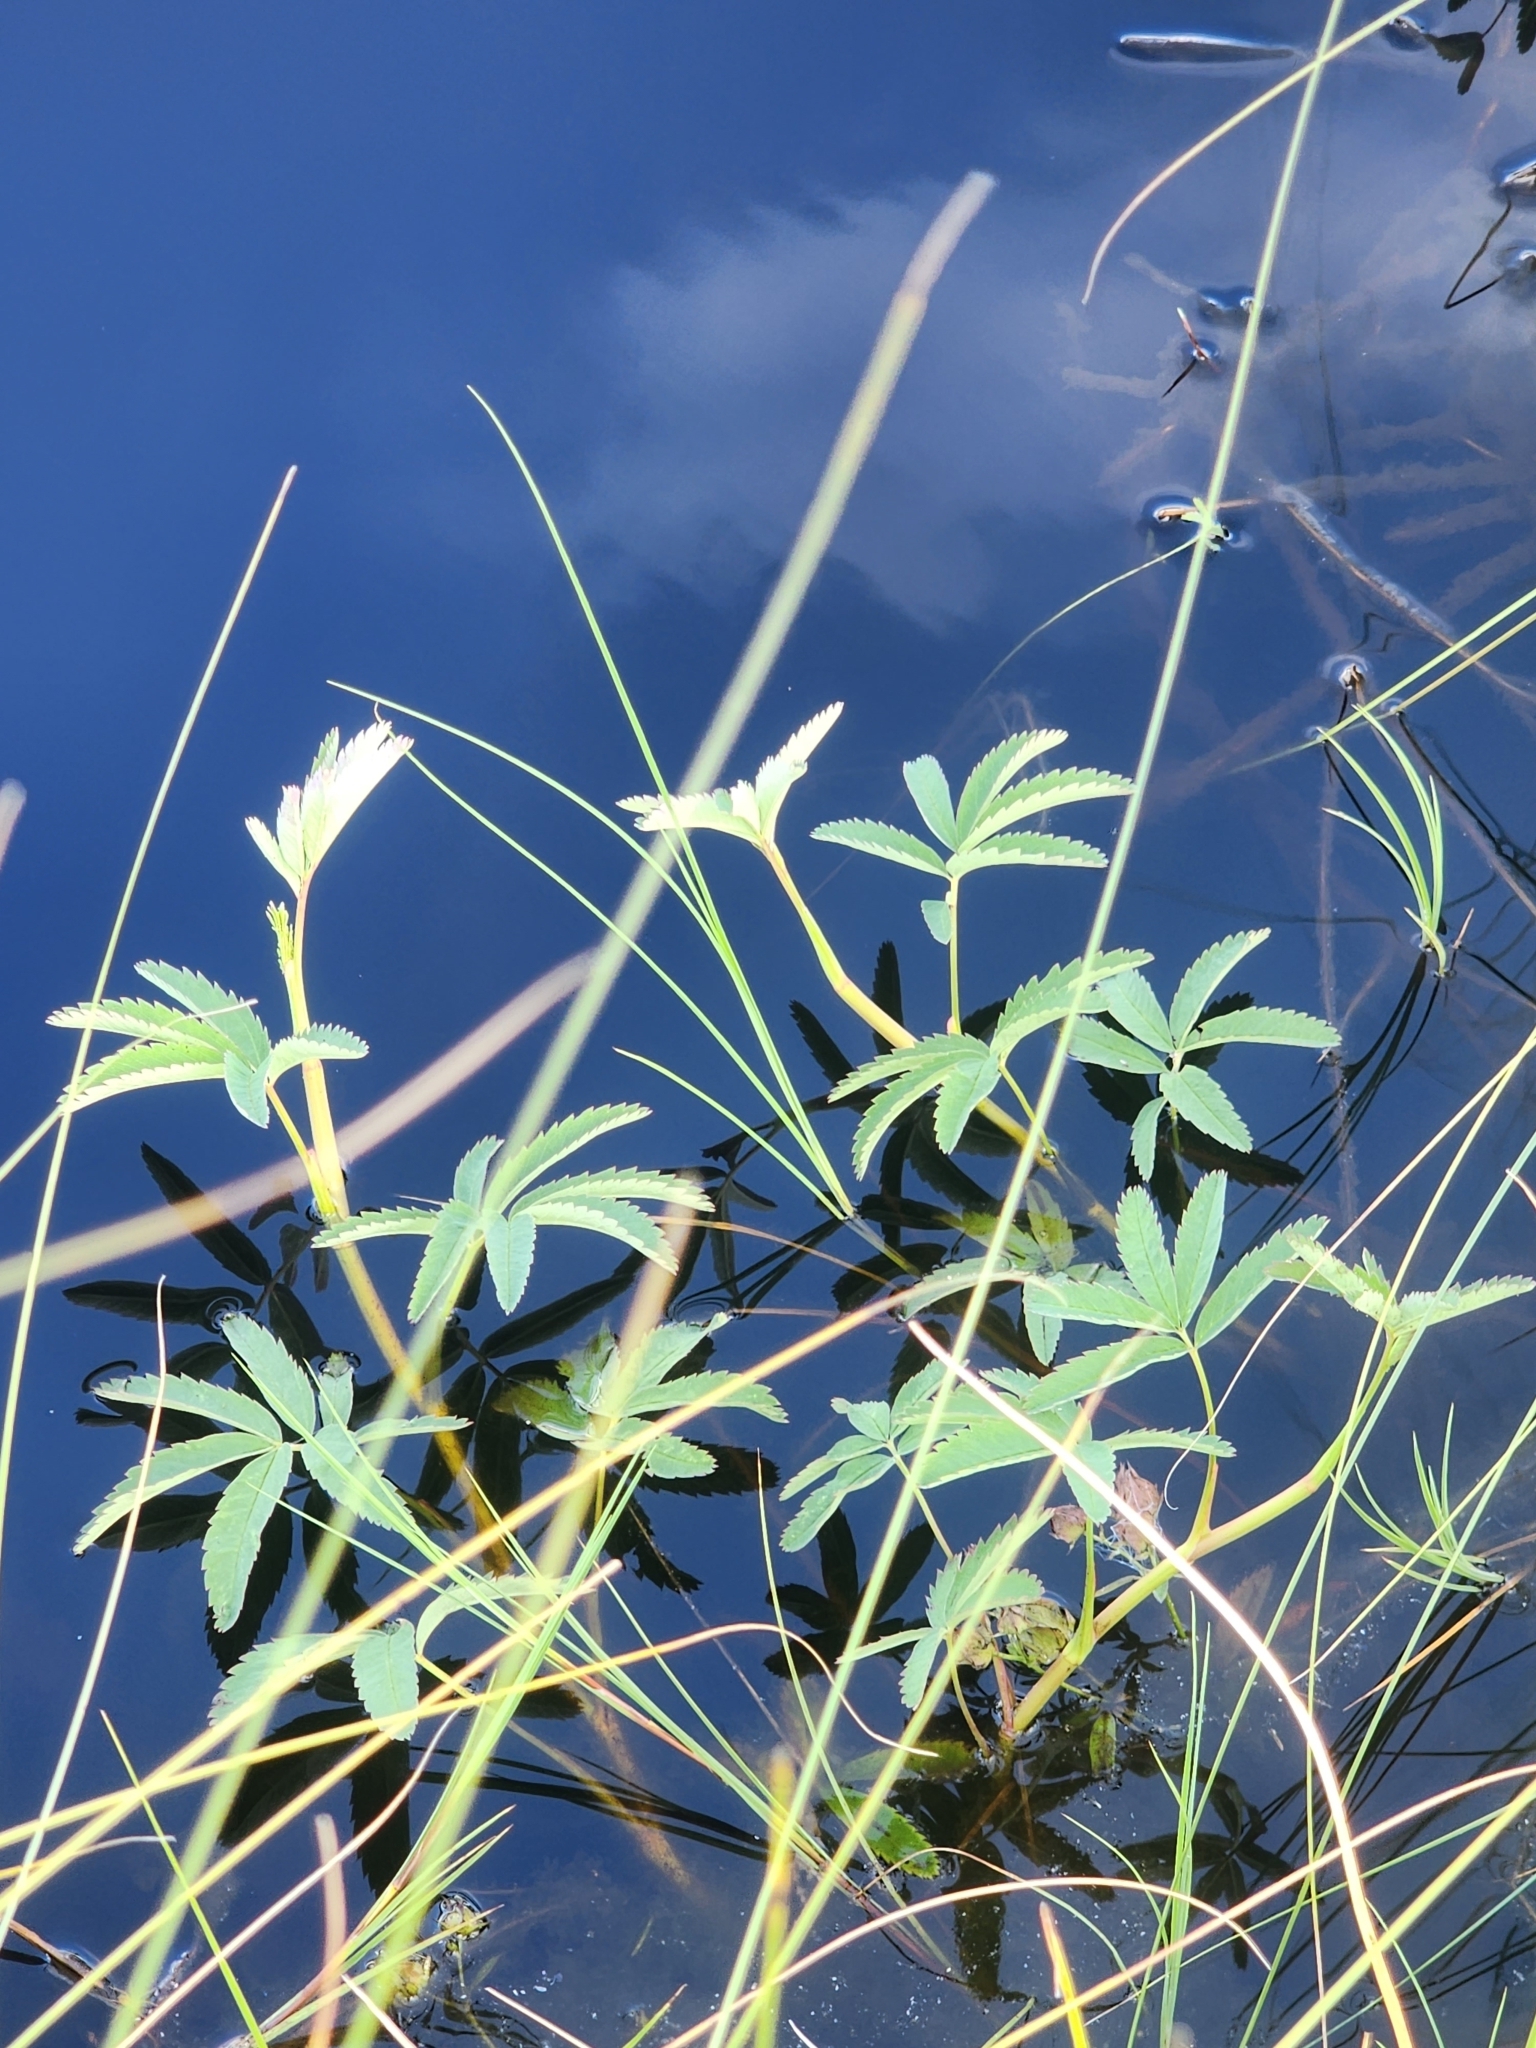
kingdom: Plantae
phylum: Tracheophyta
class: Magnoliopsida
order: Rosales
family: Rosaceae
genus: Comarum
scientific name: Comarum palustre
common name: Marsh cinquefoil
